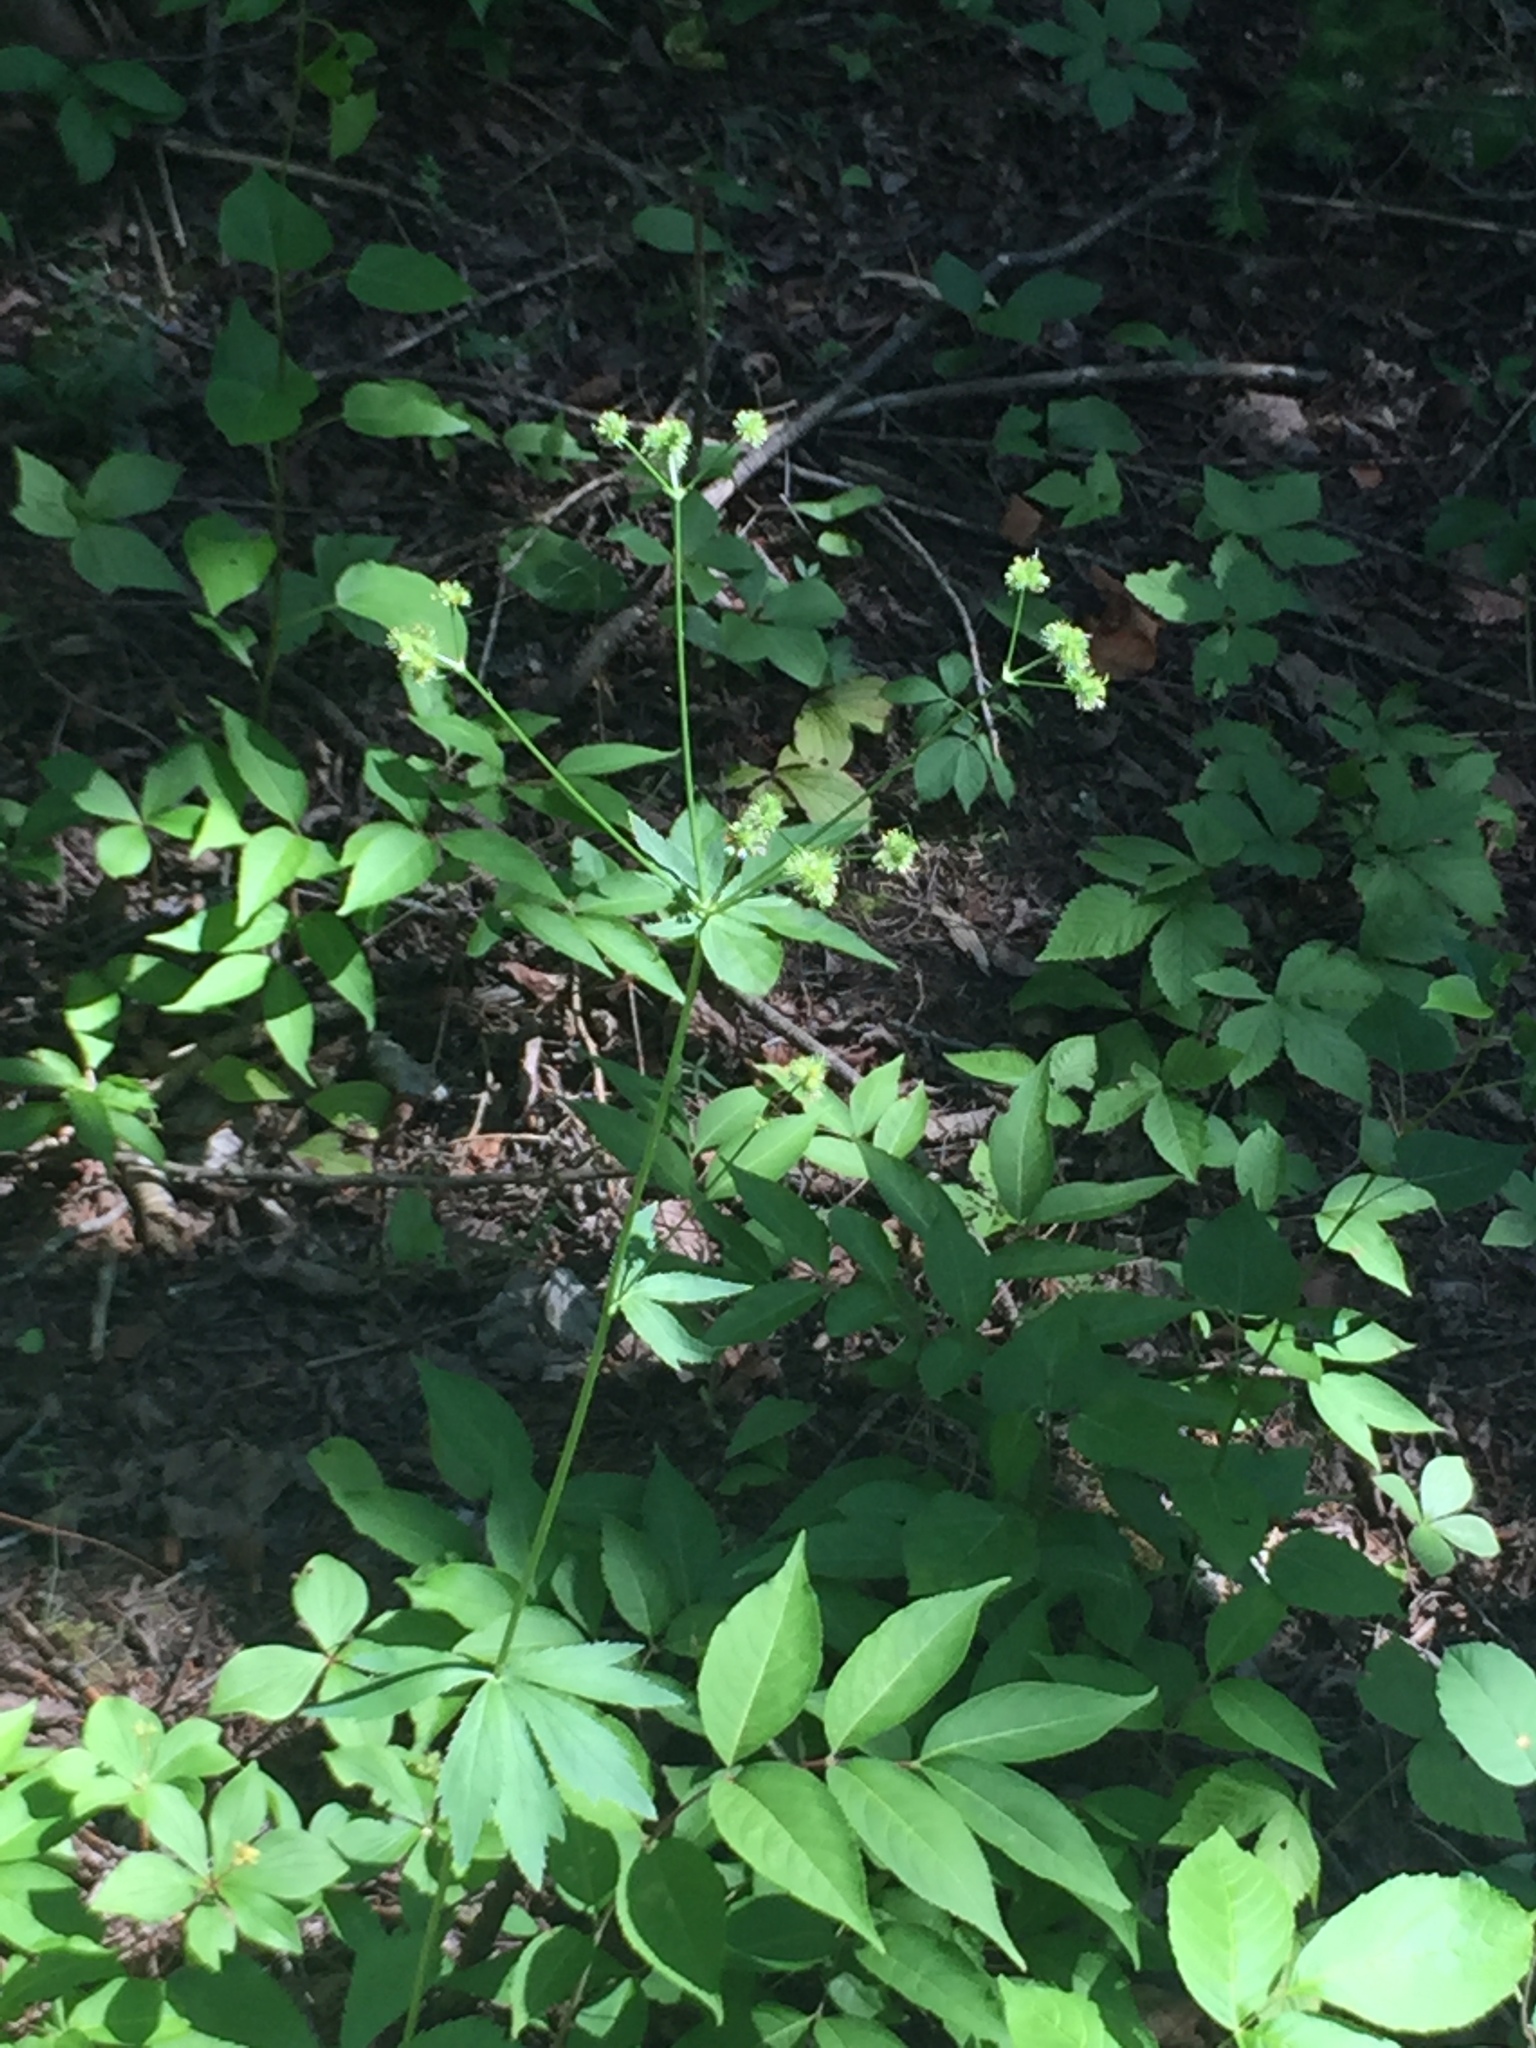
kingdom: Plantae
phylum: Tracheophyta
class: Magnoliopsida
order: Apiales
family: Apiaceae
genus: Sanicula
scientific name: Sanicula marilandica
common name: Black snakeroot
